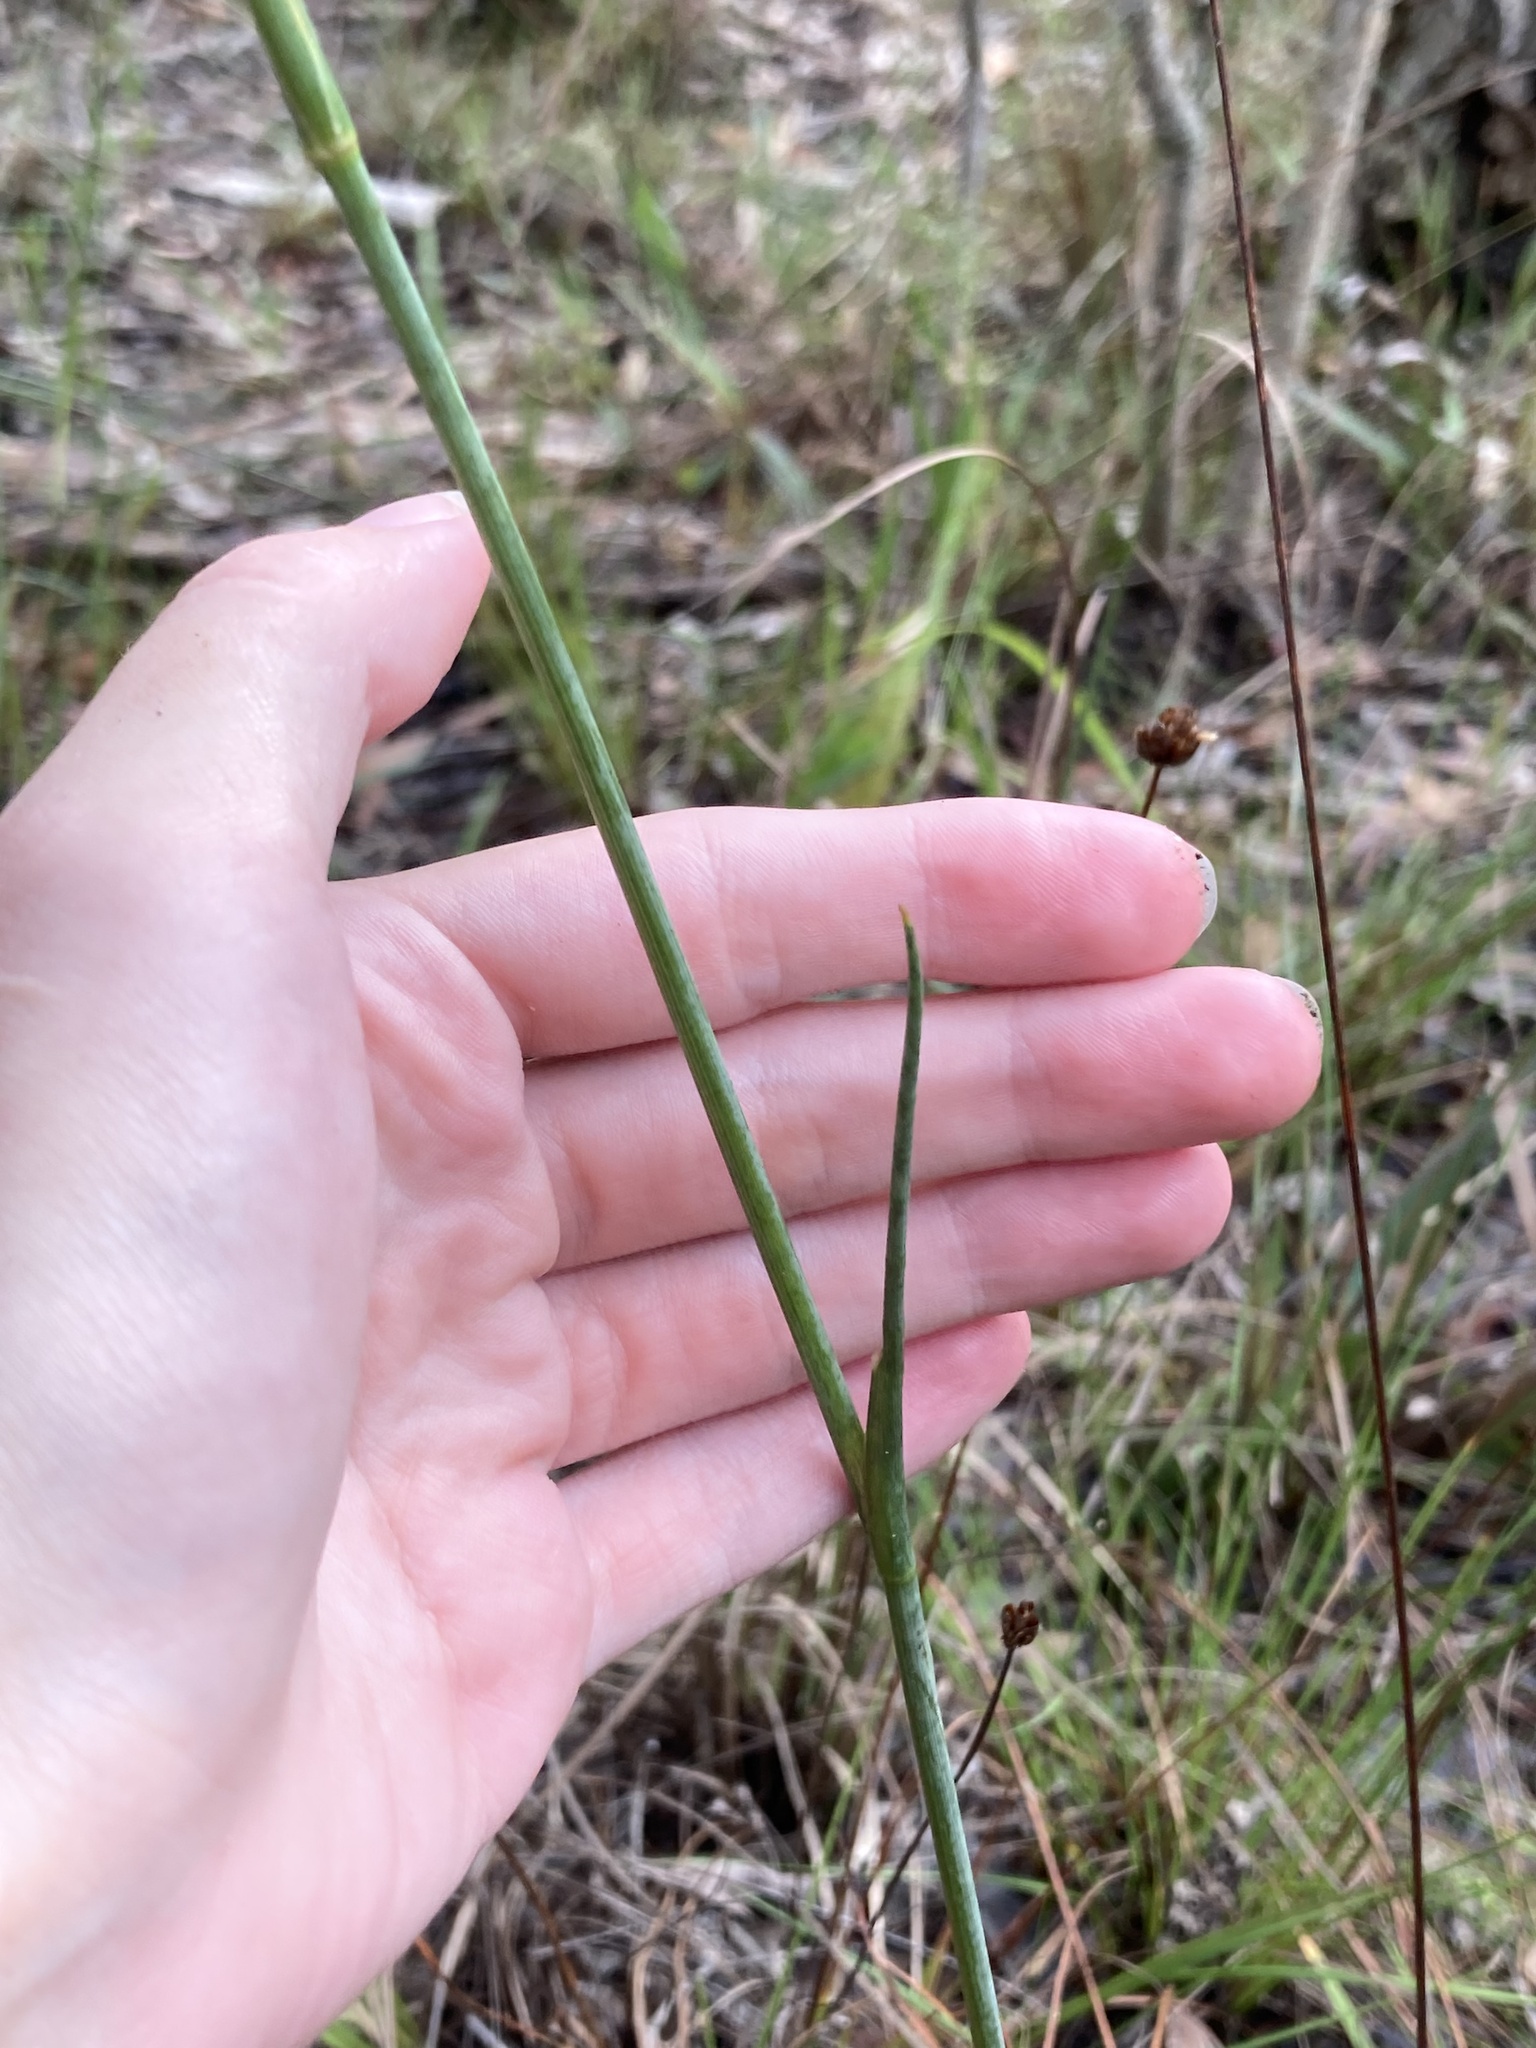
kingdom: Plantae
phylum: Tracheophyta
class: Magnoliopsida
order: Apiales
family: Apiaceae
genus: Tiedemannia
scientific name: Tiedemannia filiformis
